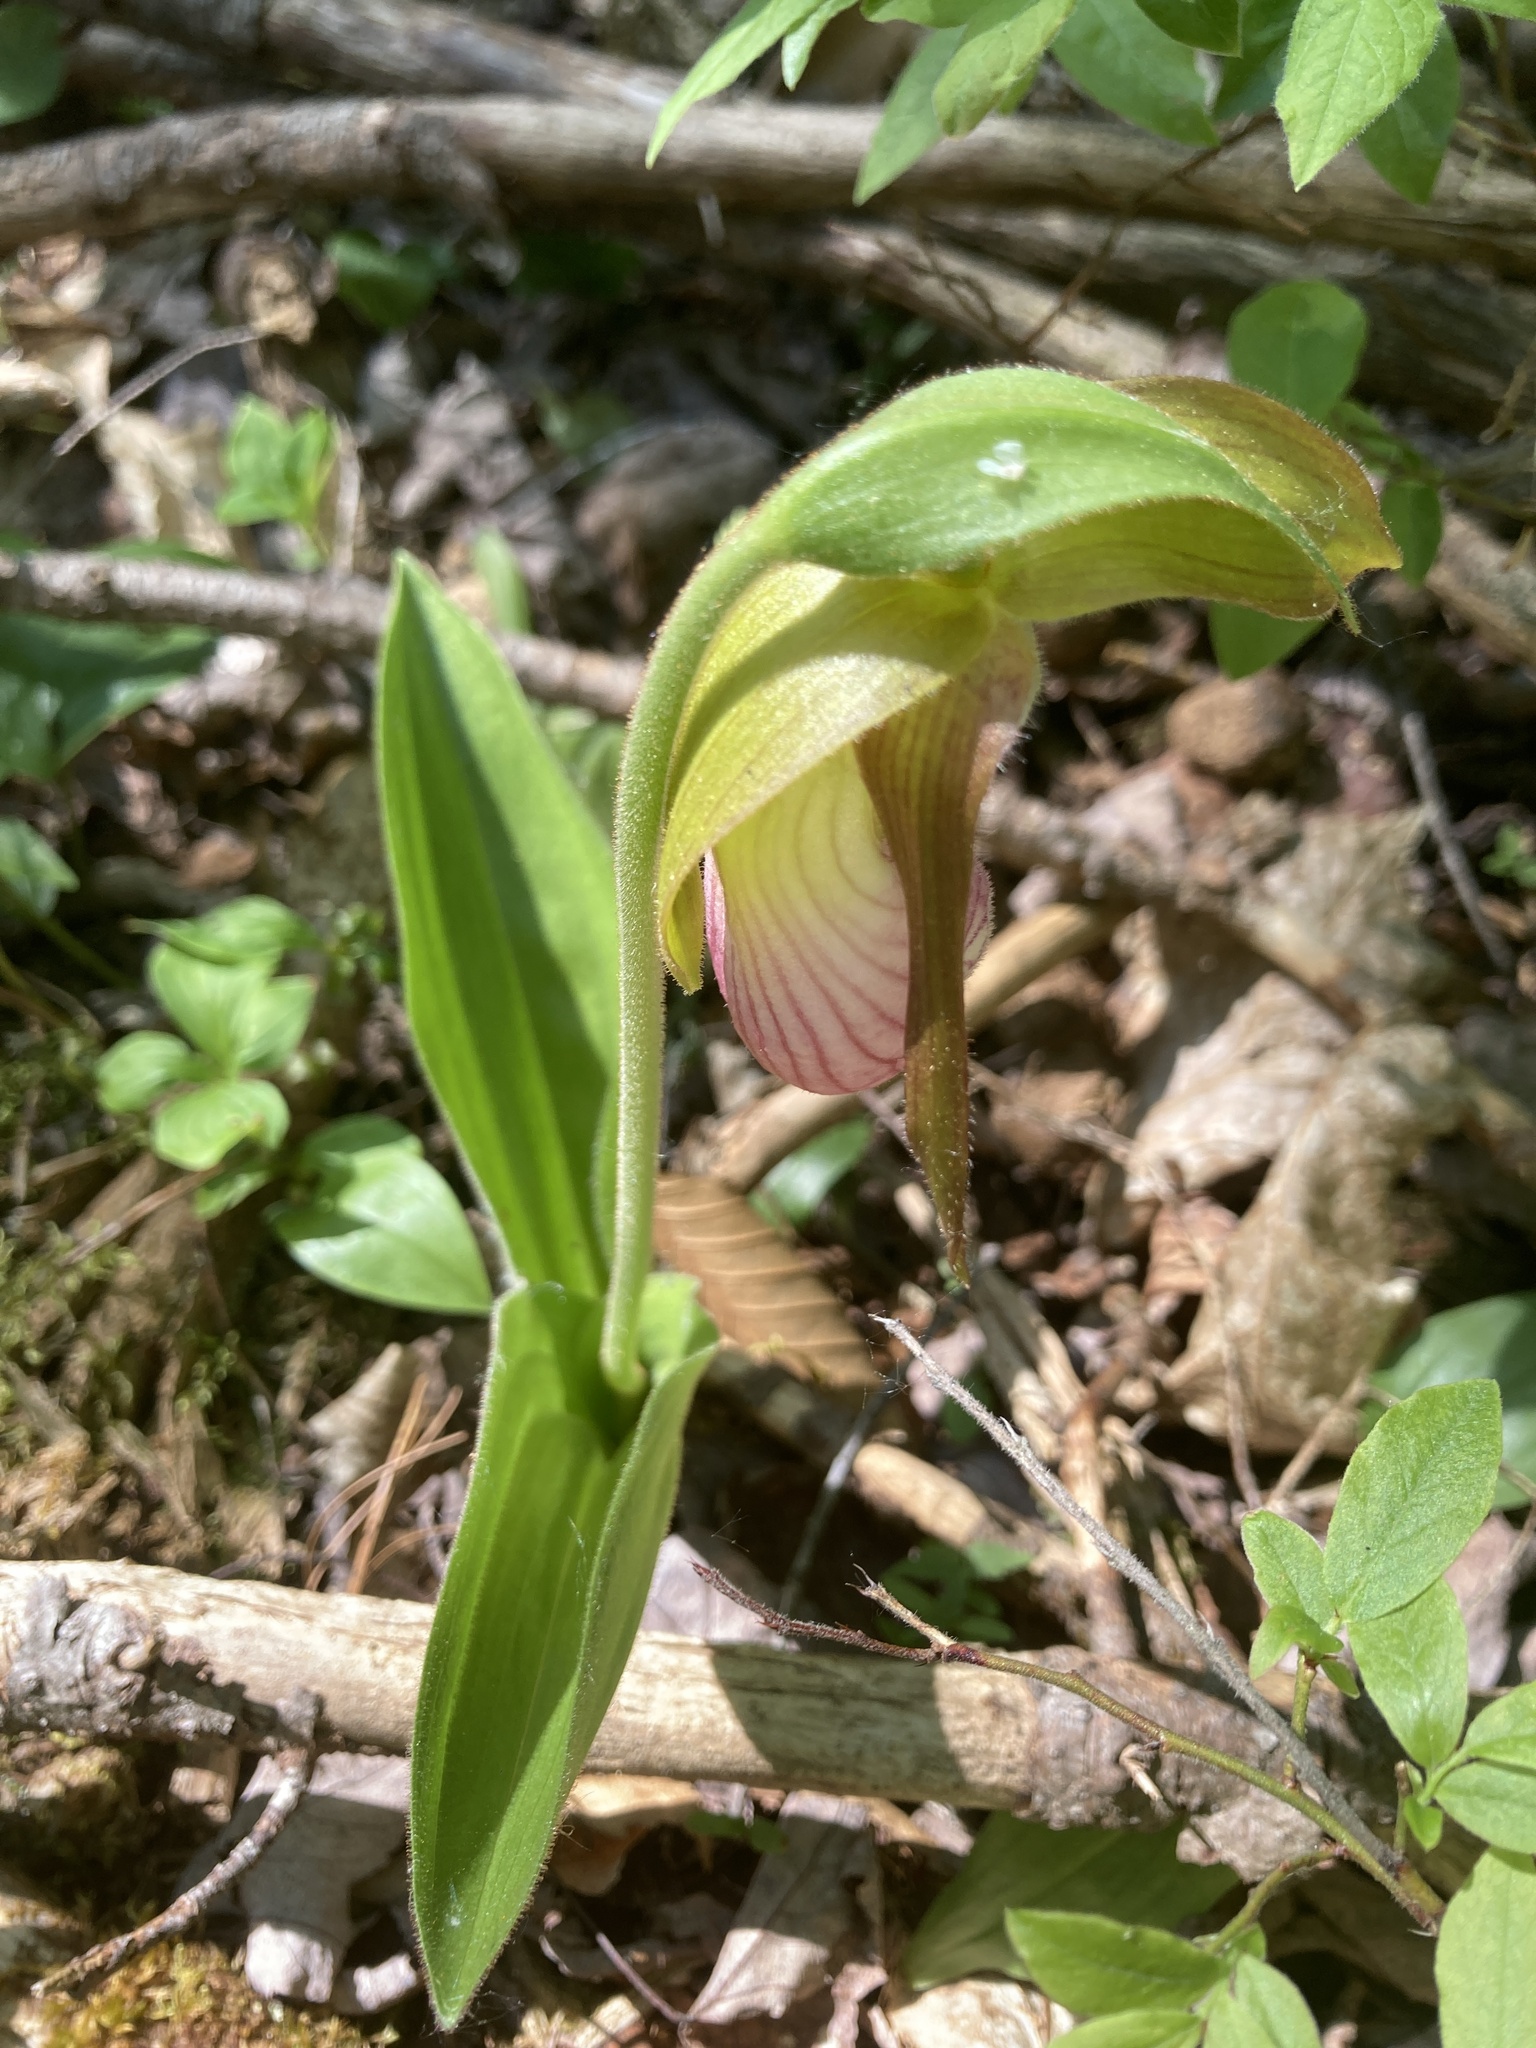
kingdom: Plantae
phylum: Tracheophyta
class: Liliopsida
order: Asparagales
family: Orchidaceae
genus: Cypripedium
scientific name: Cypripedium acaule
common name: Pink lady's-slipper
